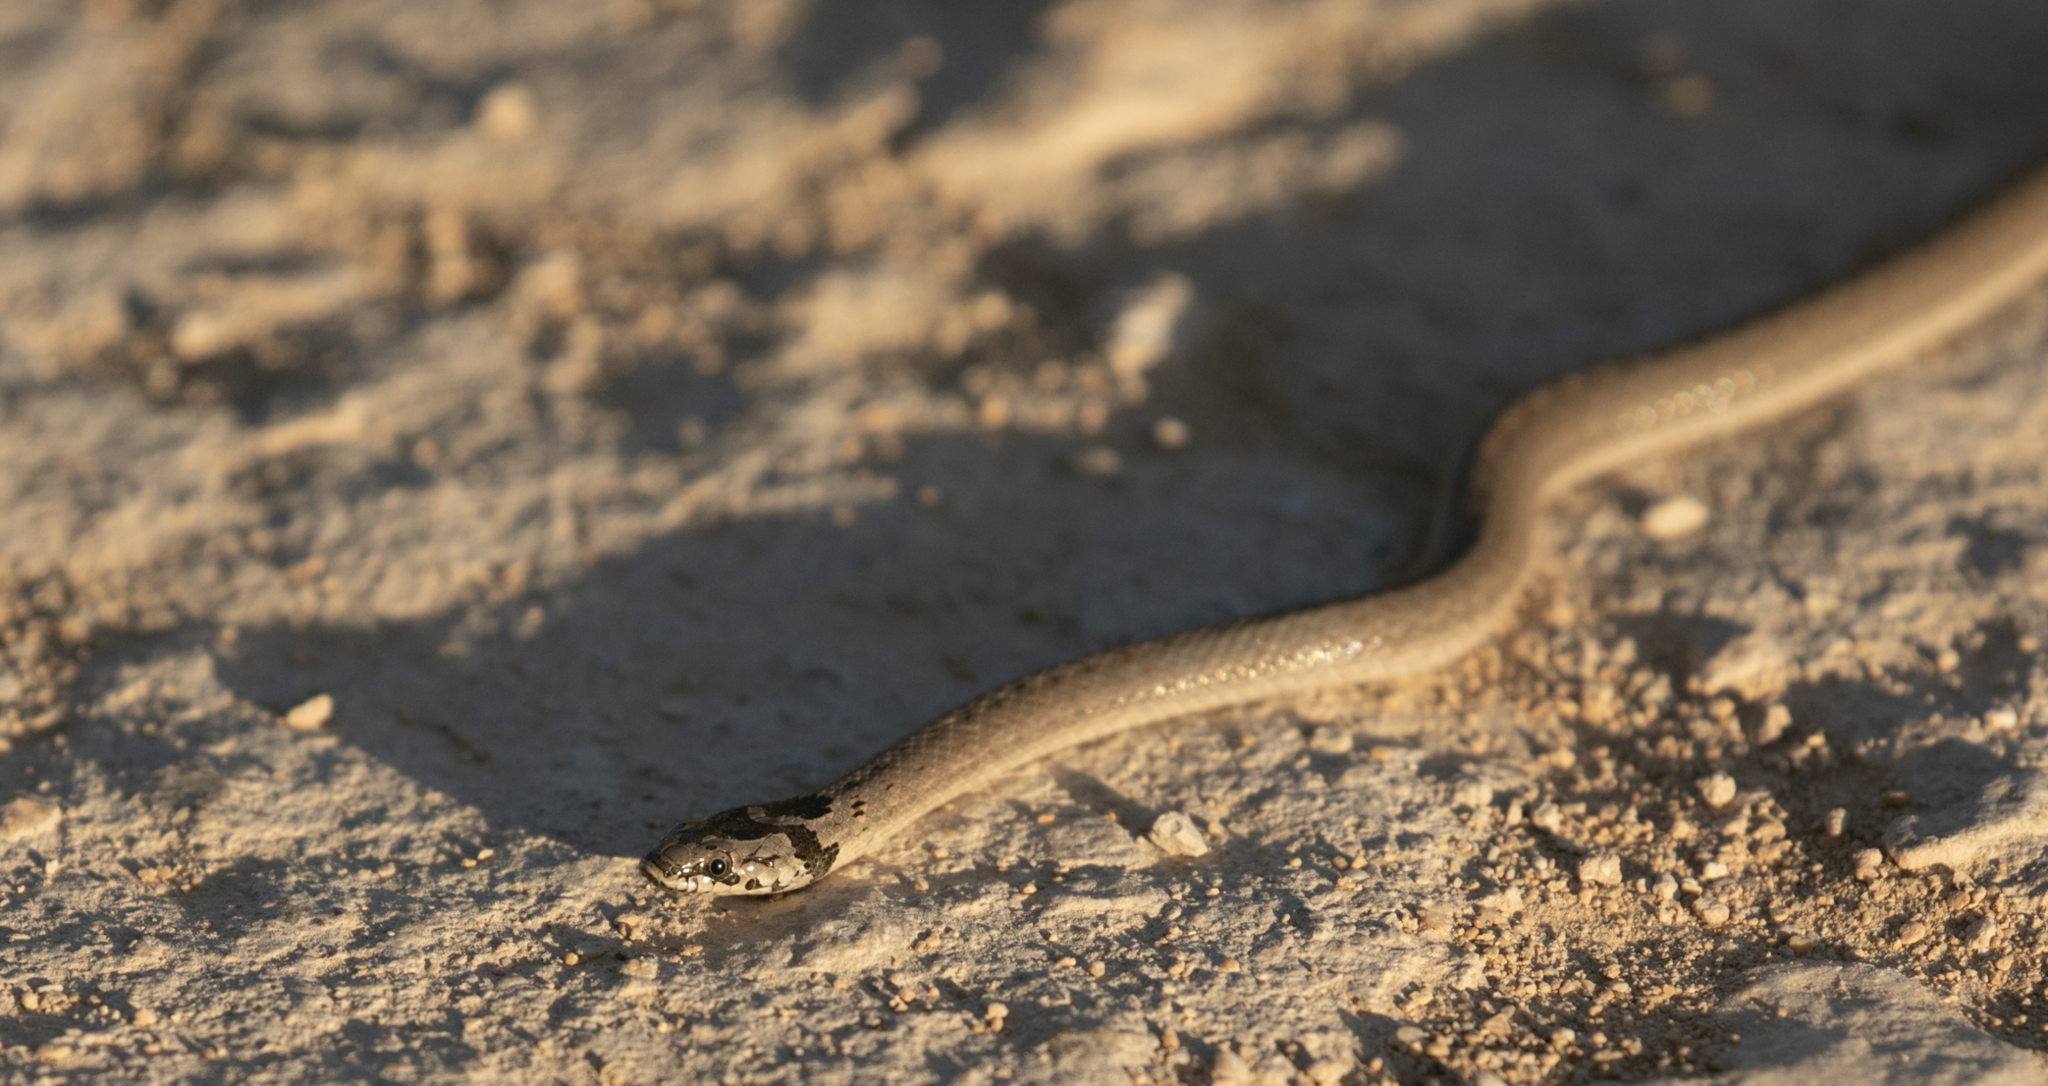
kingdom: Animalia
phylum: Chordata
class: Squamata
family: Colubridae
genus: Macroprotodon
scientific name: Macroprotodon cucullatus
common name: False smooth snake
